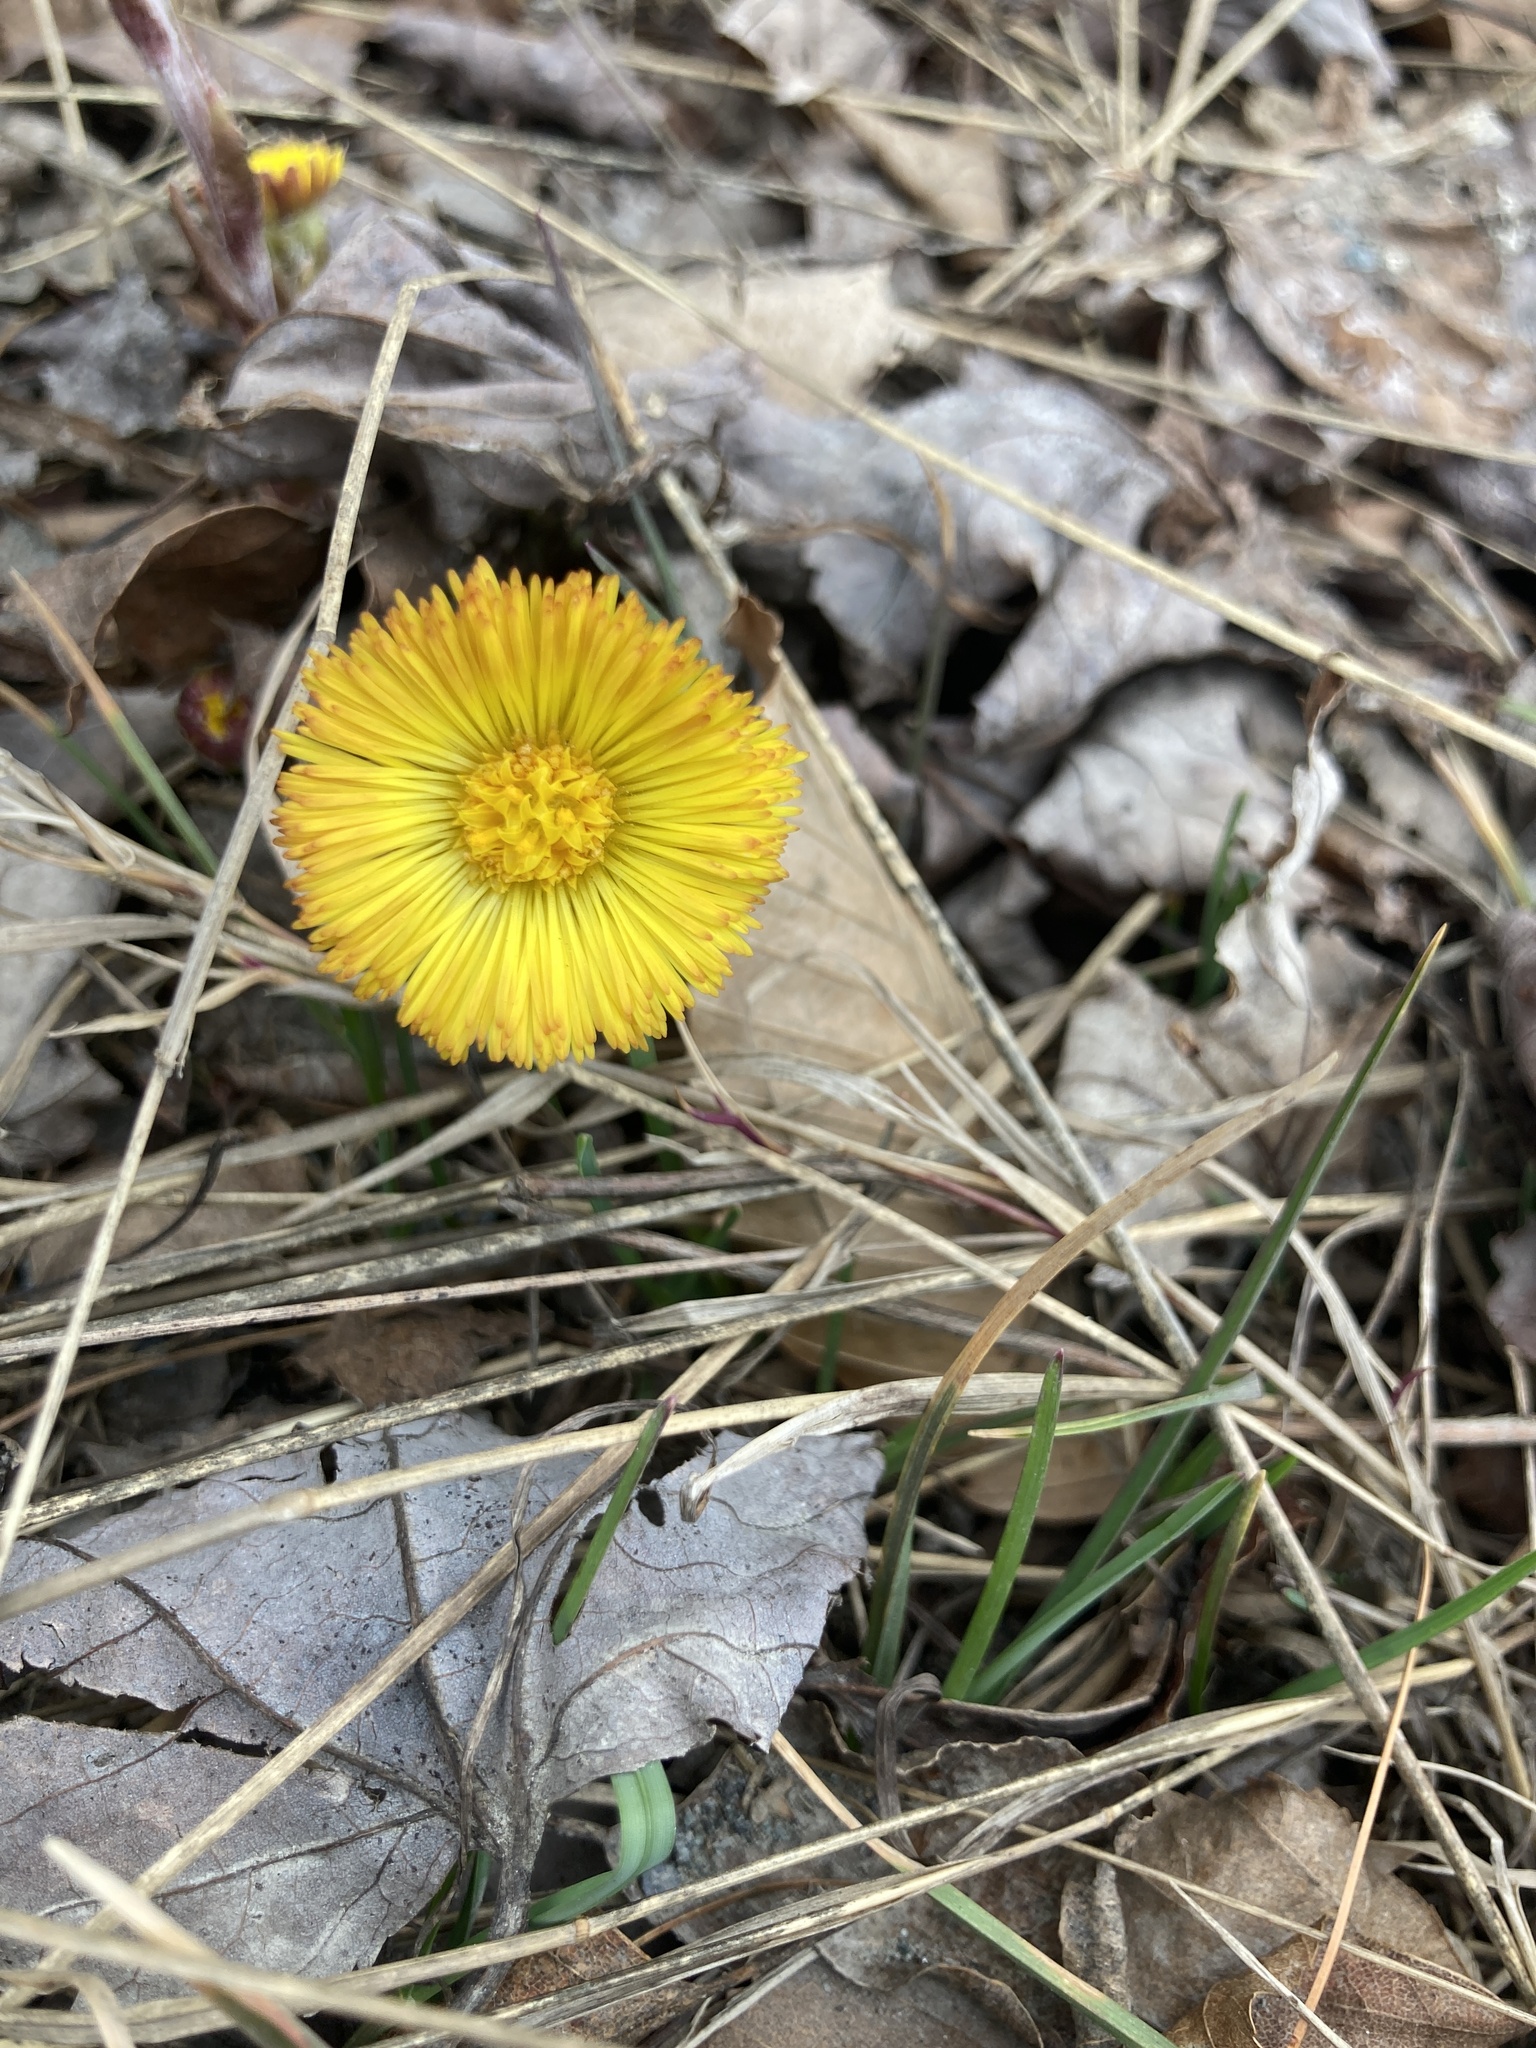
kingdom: Plantae
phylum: Tracheophyta
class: Magnoliopsida
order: Asterales
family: Asteraceae
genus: Tussilago
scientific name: Tussilago farfara
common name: Coltsfoot
